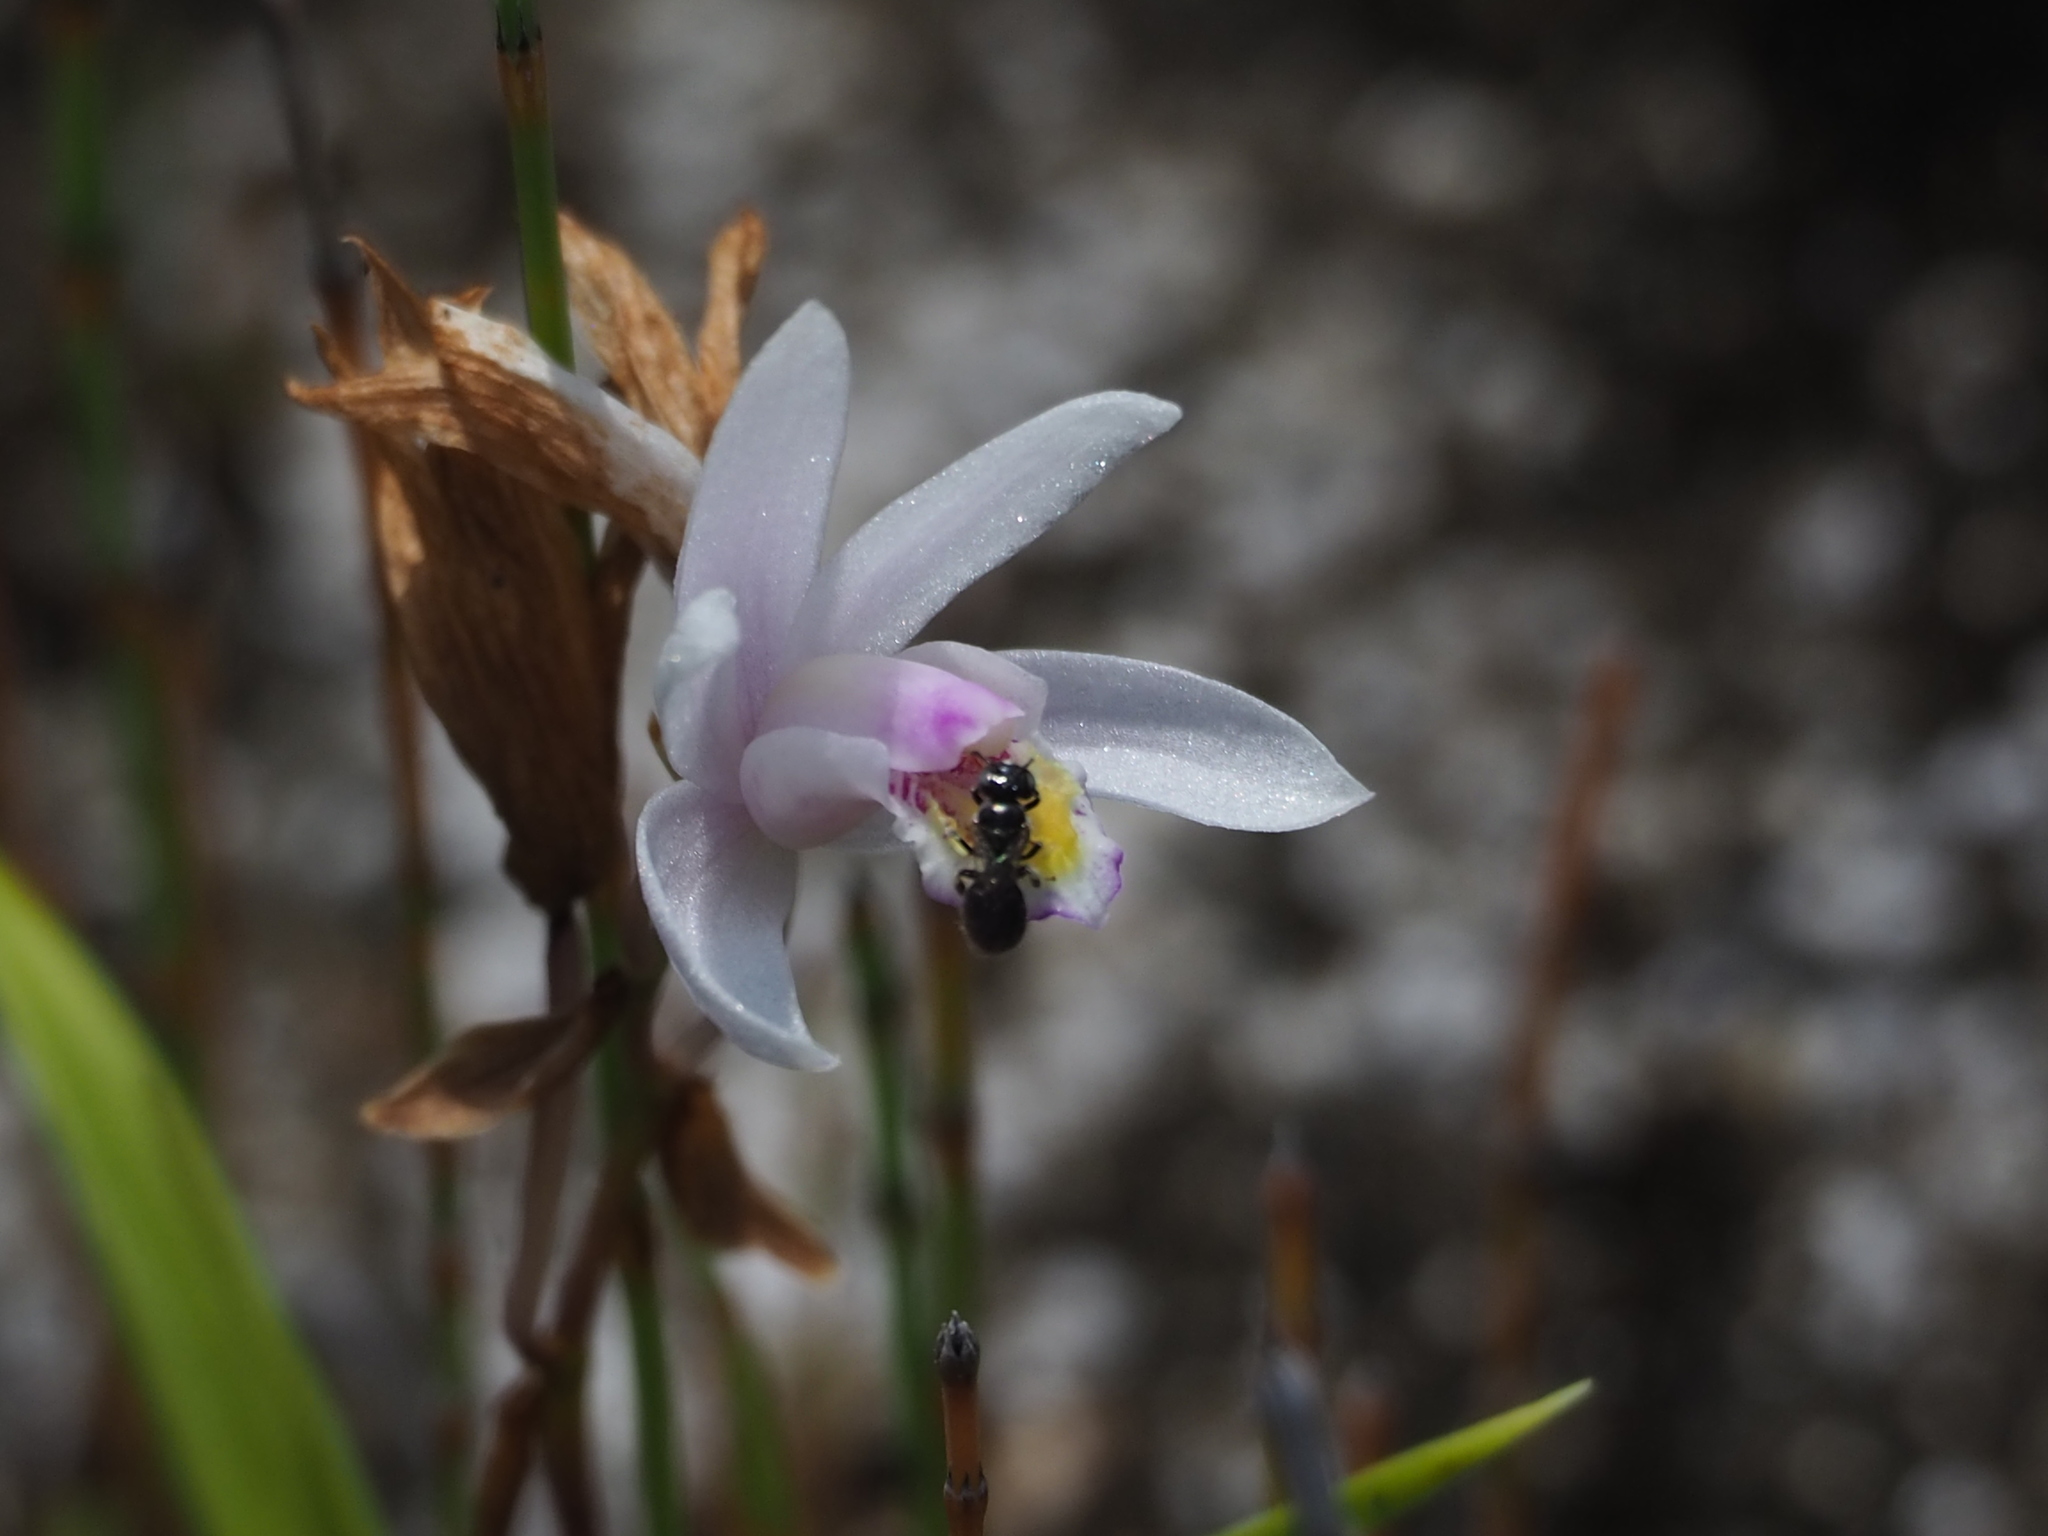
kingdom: Plantae
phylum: Tracheophyta
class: Liliopsida
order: Asparagales
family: Orchidaceae
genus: Bletilla
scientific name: Bletilla formosana
